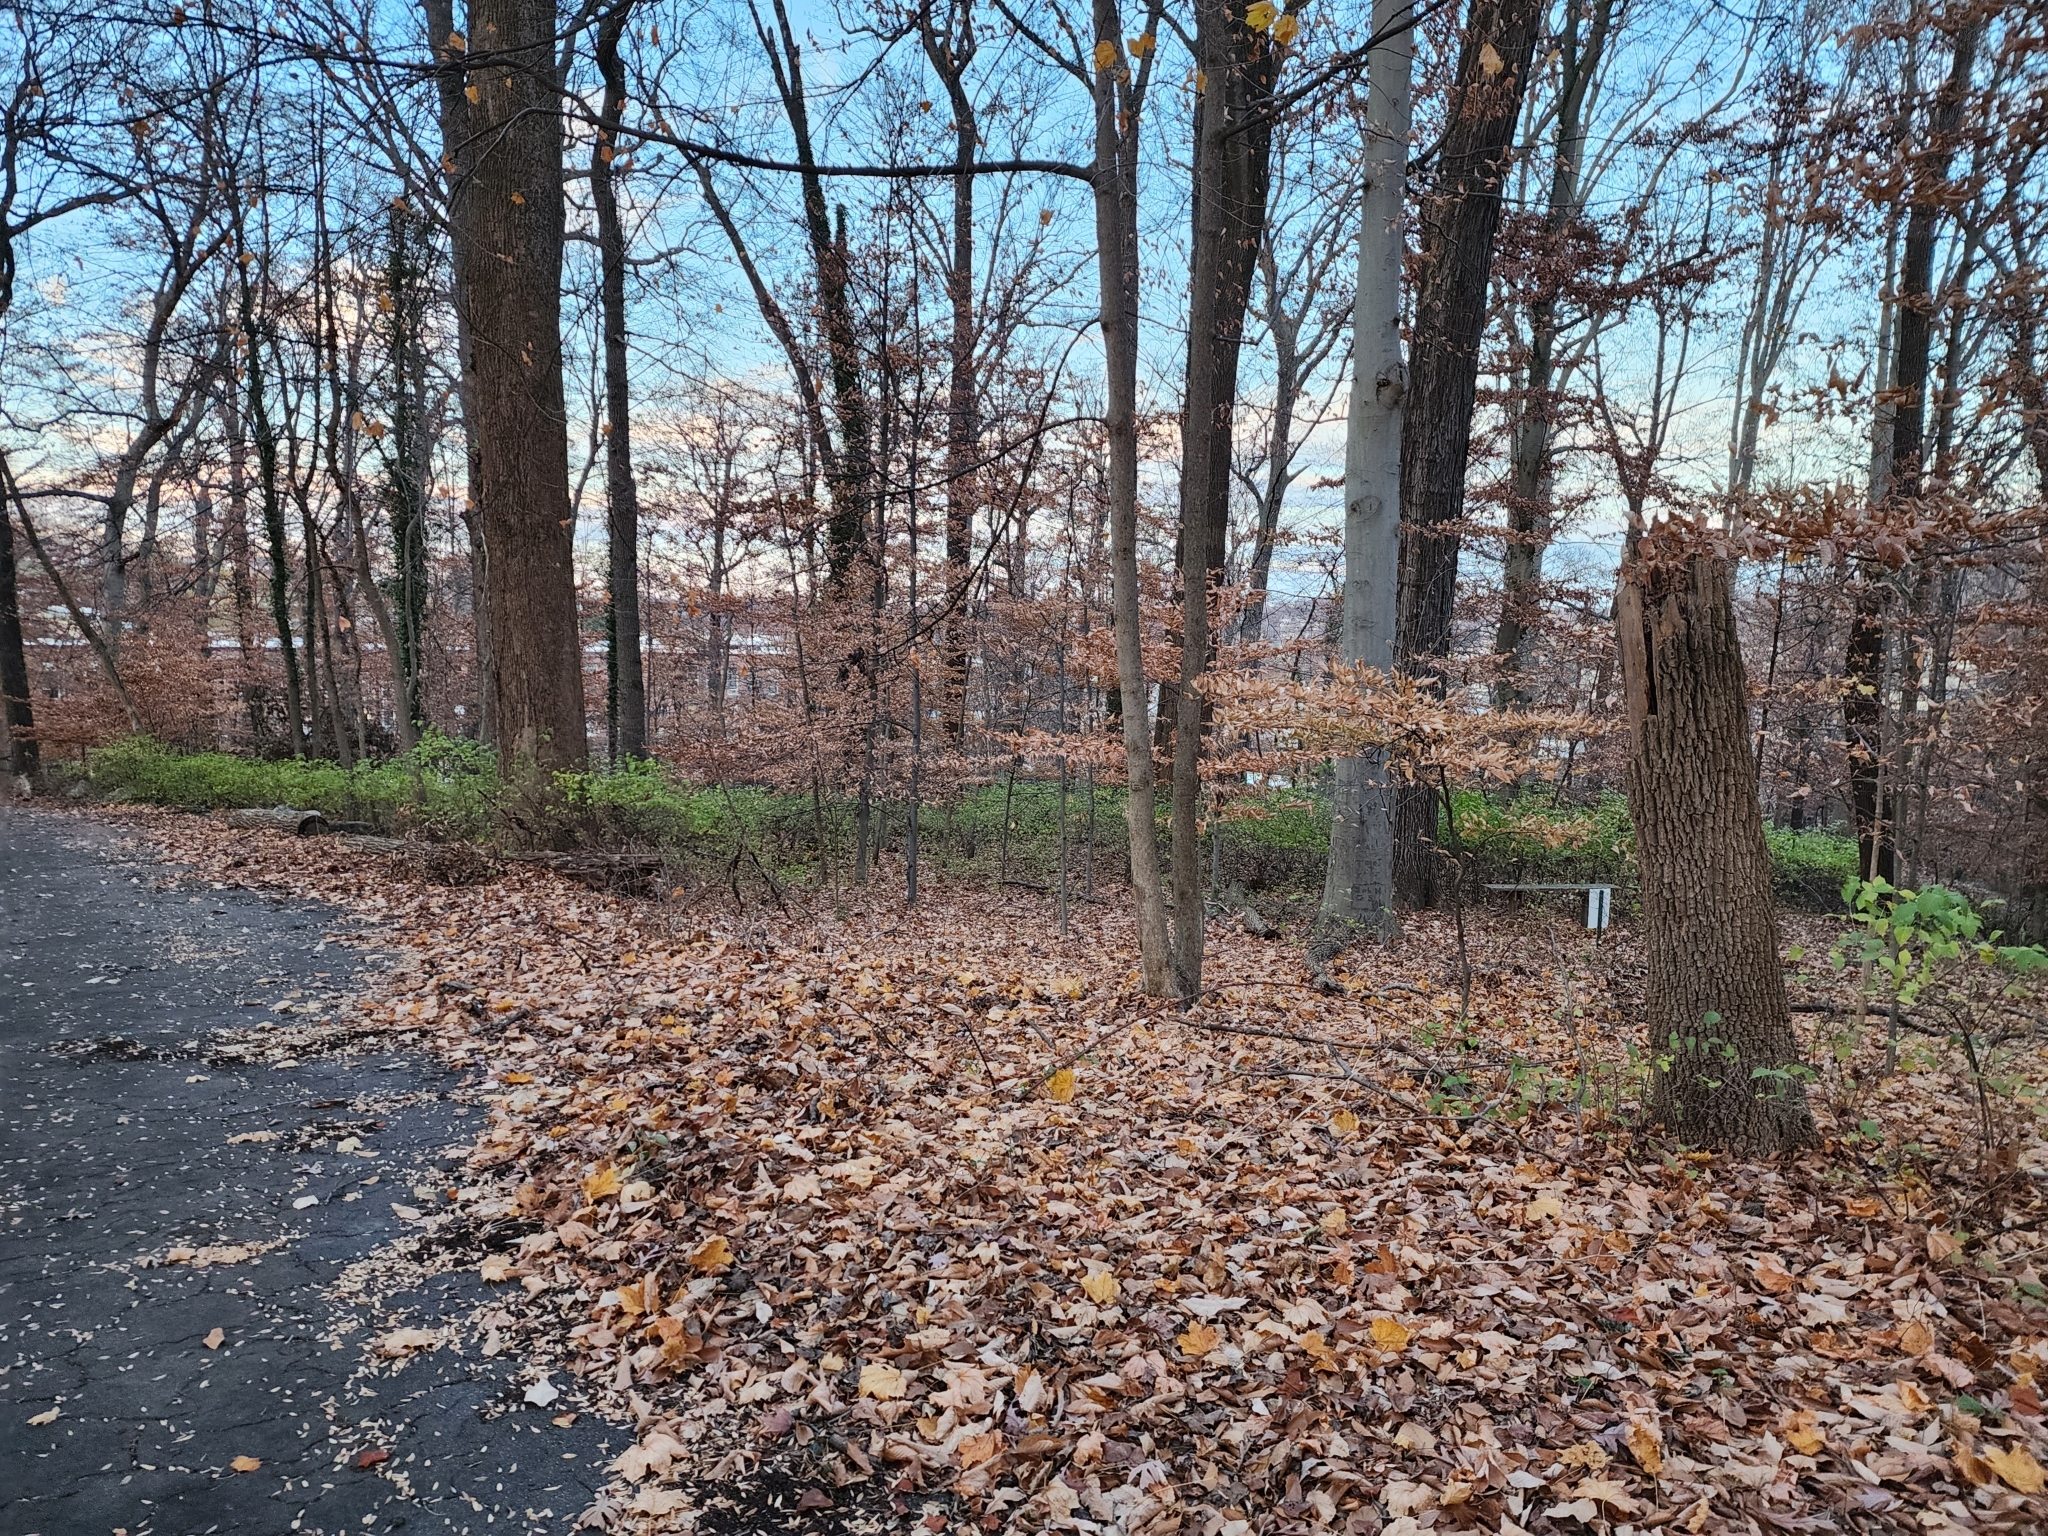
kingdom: Plantae
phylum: Tracheophyta
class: Magnoliopsida
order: Rosales
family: Rosaceae
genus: Rhodotypos
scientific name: Rhodotypos scandens
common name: Jetbead
